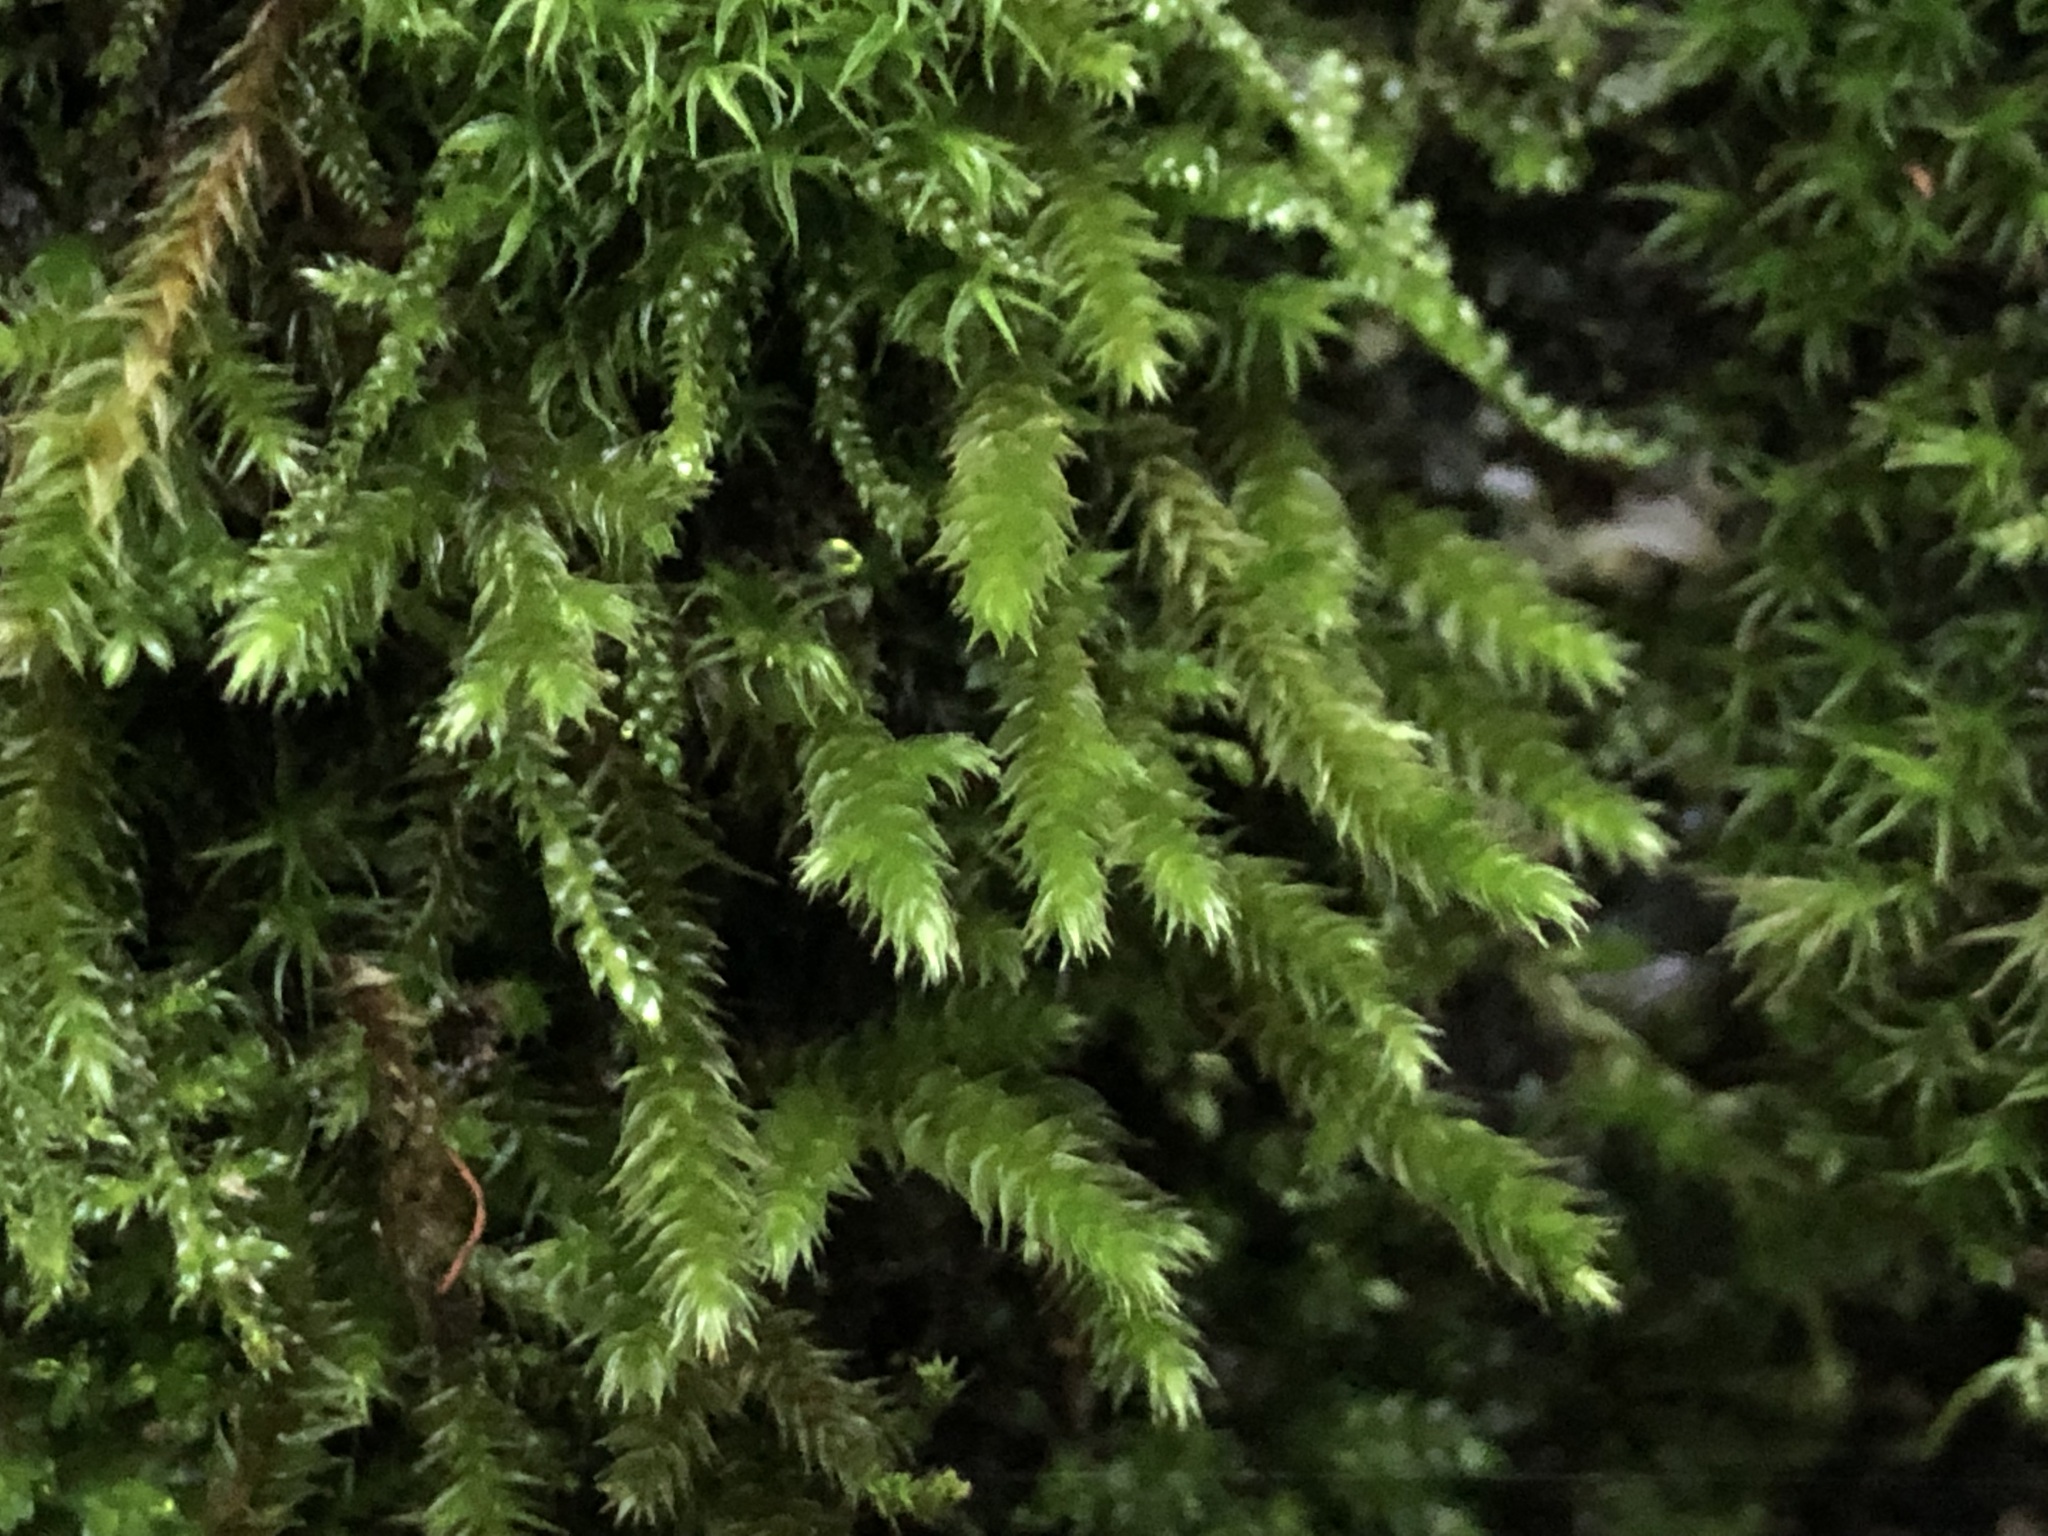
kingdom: Plantae
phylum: Bryophyta
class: Bryopsida
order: Hypnales
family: Leucodontaceae
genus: Leucodon
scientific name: Leucodon sciuroides
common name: Squirrel-tail moss
